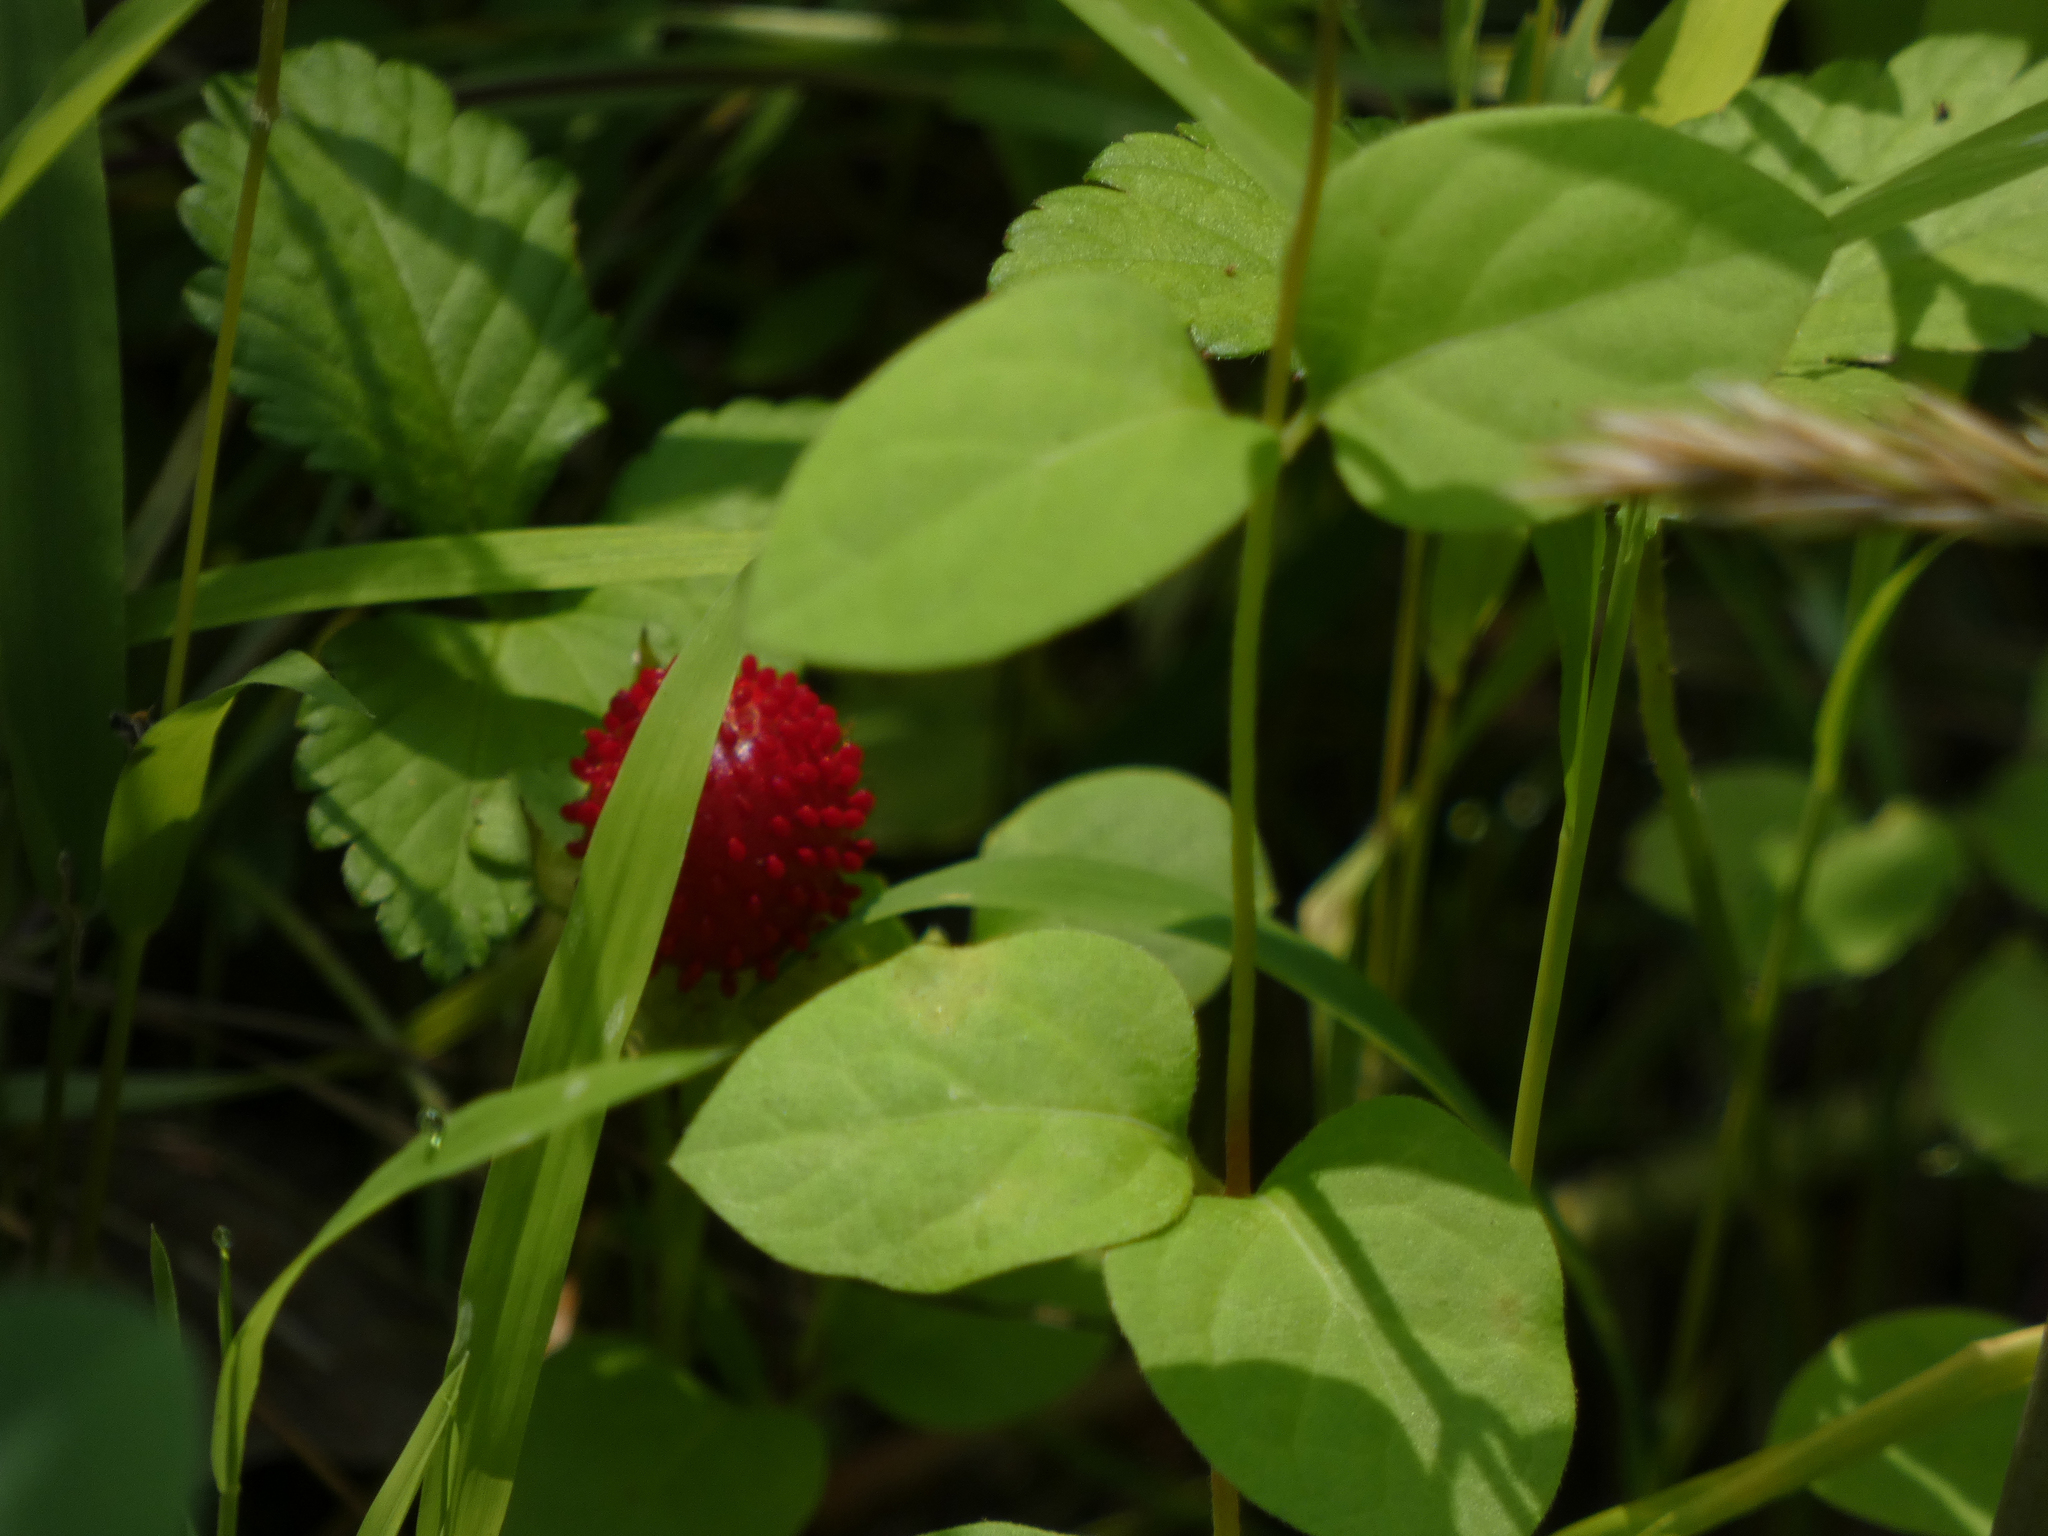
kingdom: Plantae
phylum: Tracheophyta
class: Magnoliopsida
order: Rosales
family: Rosaceae
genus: Potentilla
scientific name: Potentilla indica
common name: Yellow-flowered strawberry
